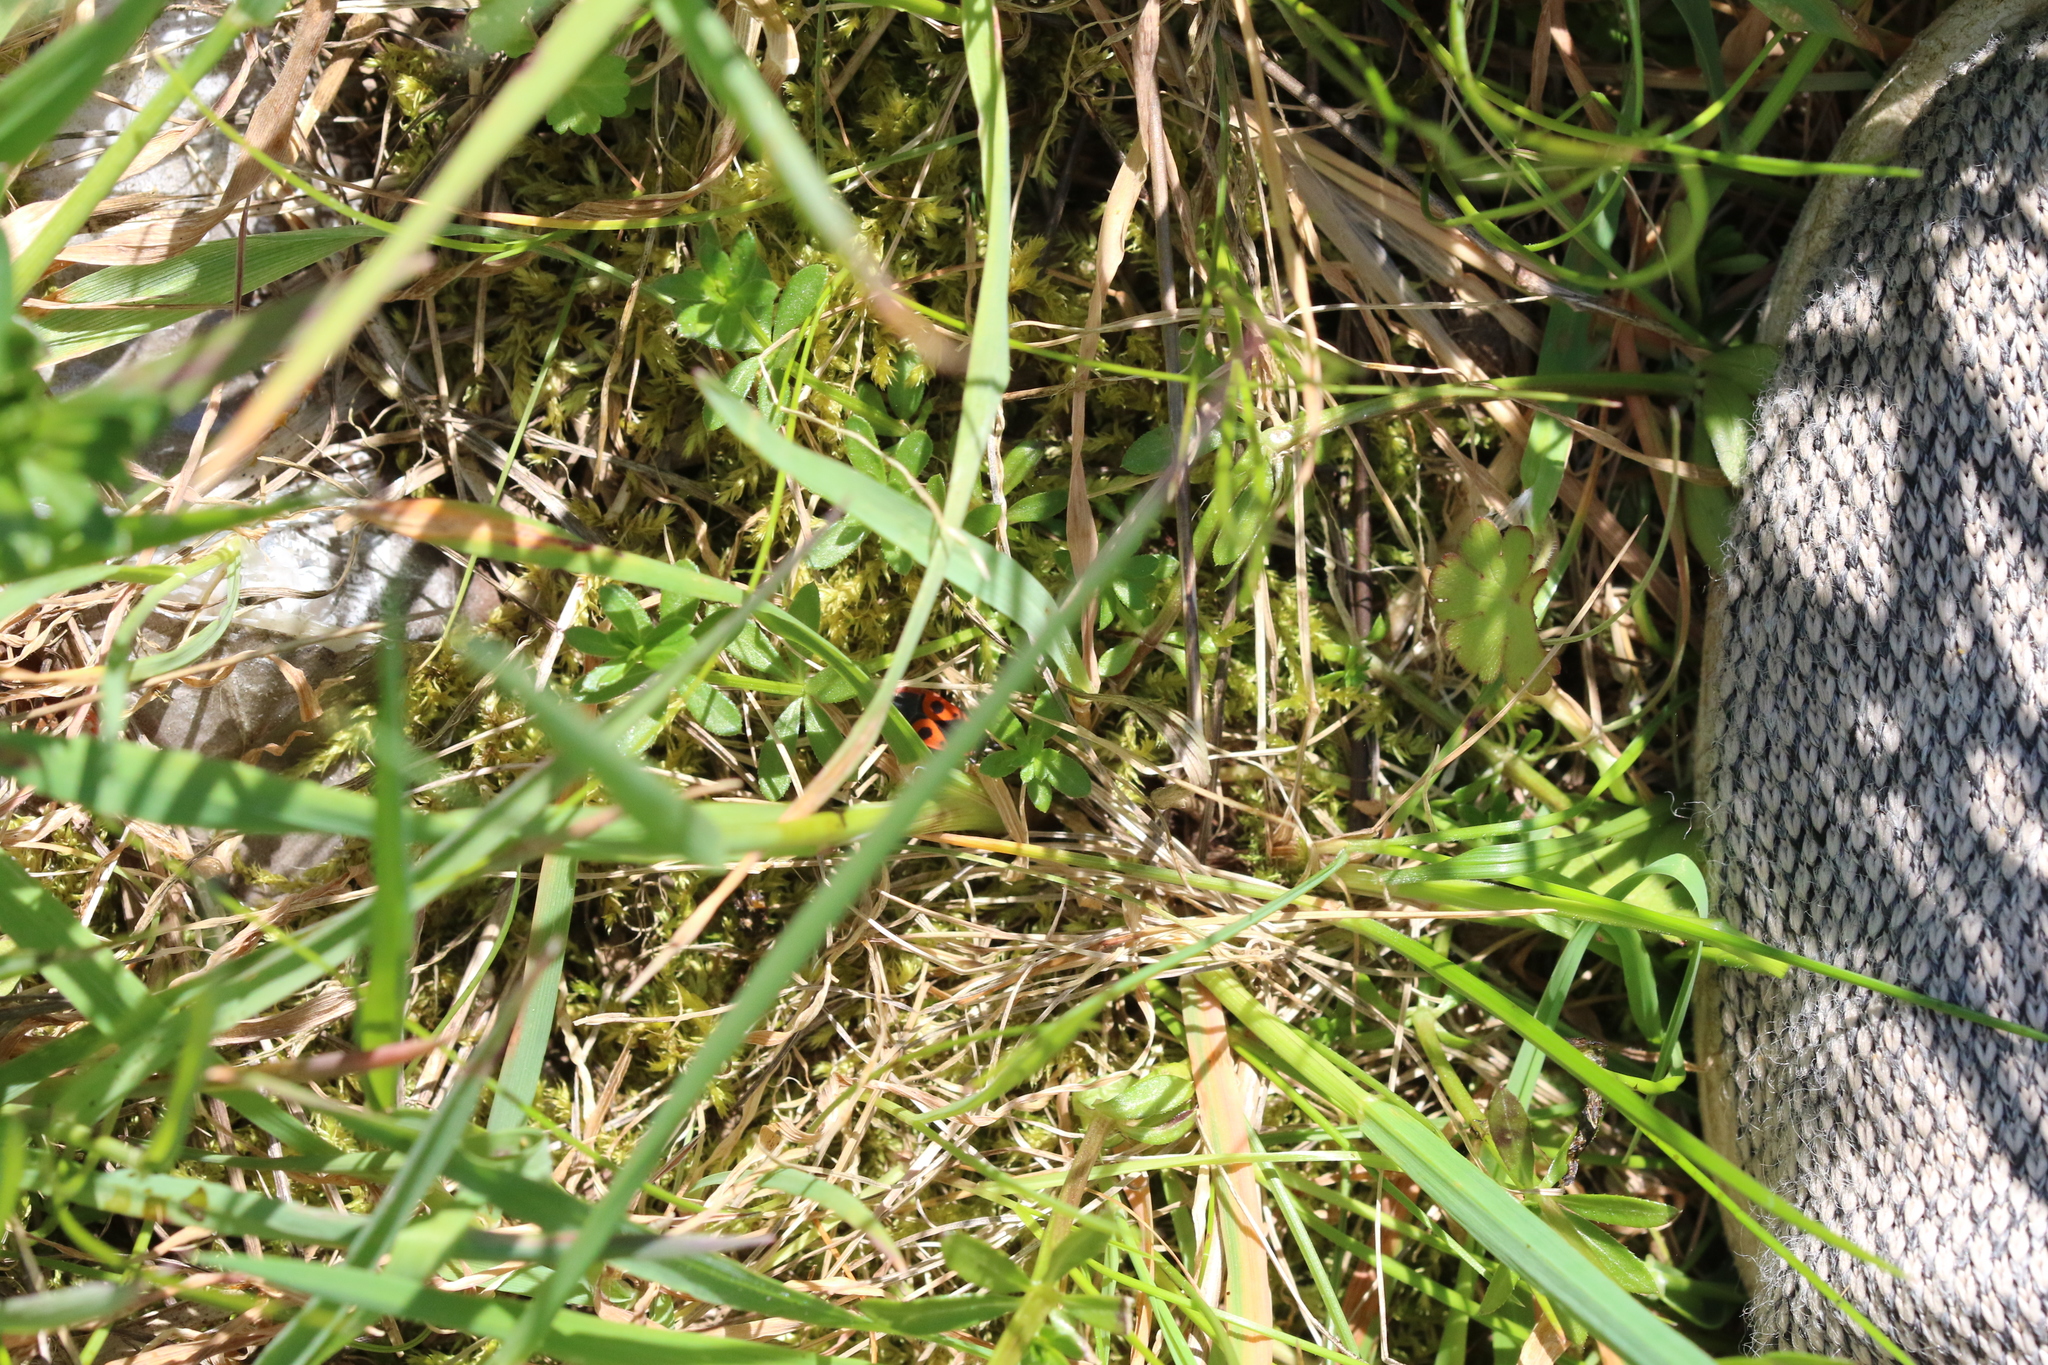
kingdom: Animalia
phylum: Arthropoda
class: Insecta
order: Hemiptera
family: Pyrrhocoridae
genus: Pyrrhocoris
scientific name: Pyrrhocoris apterus
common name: Firebug
